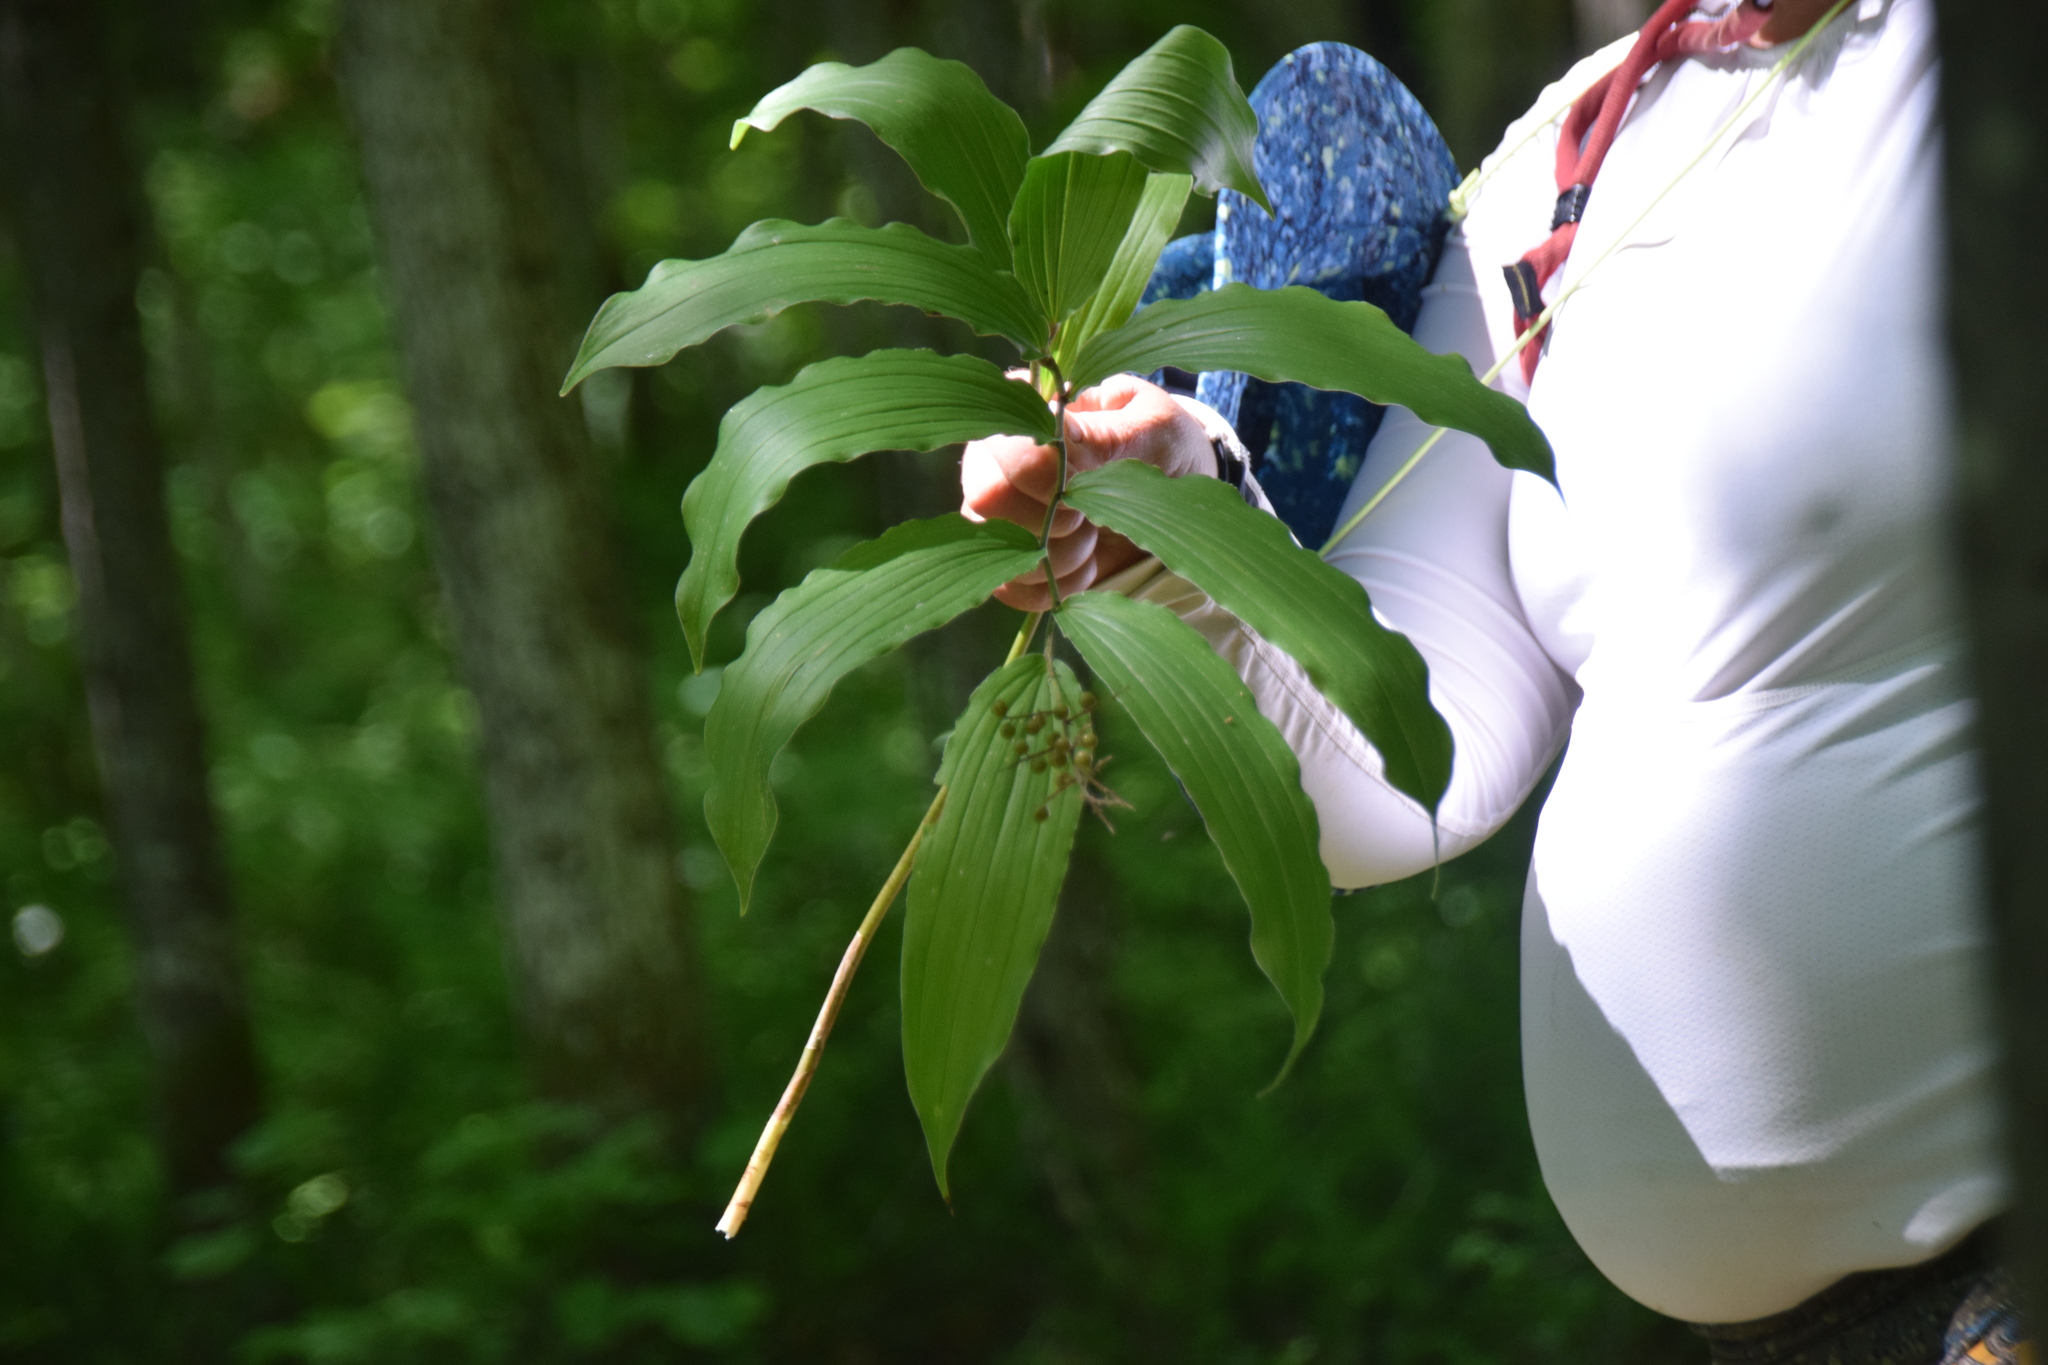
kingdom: Plantae
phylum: Tracheophyta
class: Liliopsida
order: Asparagales
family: Asparagaceae
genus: Maianthemum
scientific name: Maianthemum racemosum
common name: False spikenard
